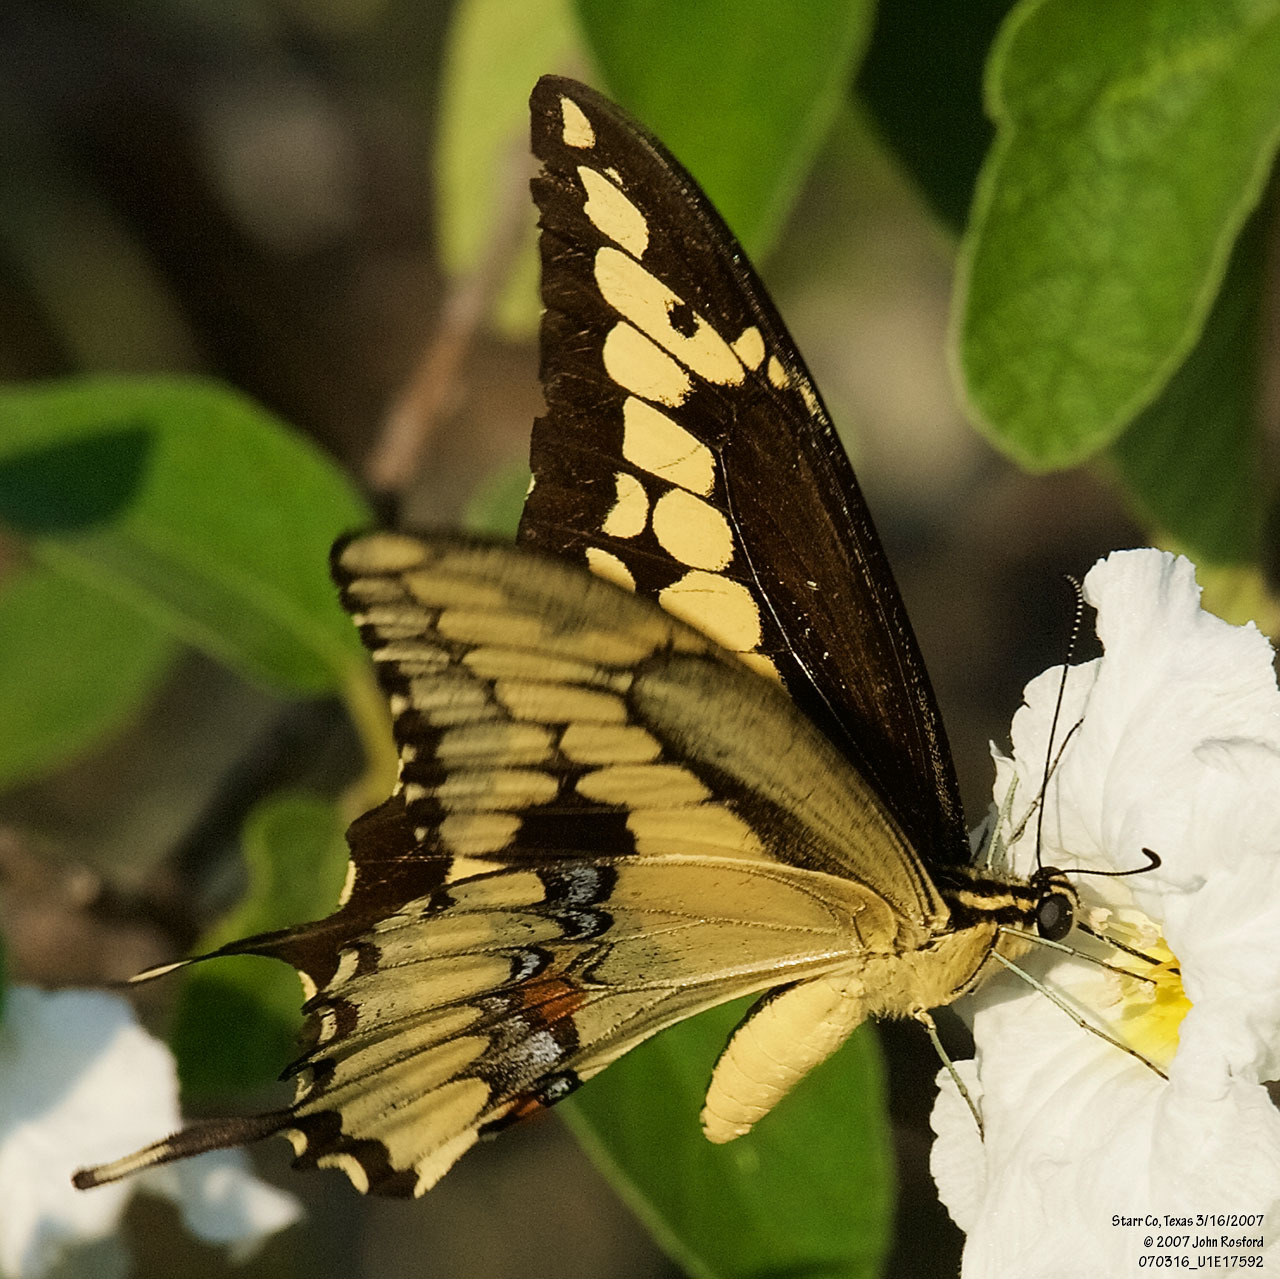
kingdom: Animalia
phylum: Arthropoda
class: Insecta
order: Lepidoptera
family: Papilionidae
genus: Papilio
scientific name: Papilio rumiko
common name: Western giant swallowtail
